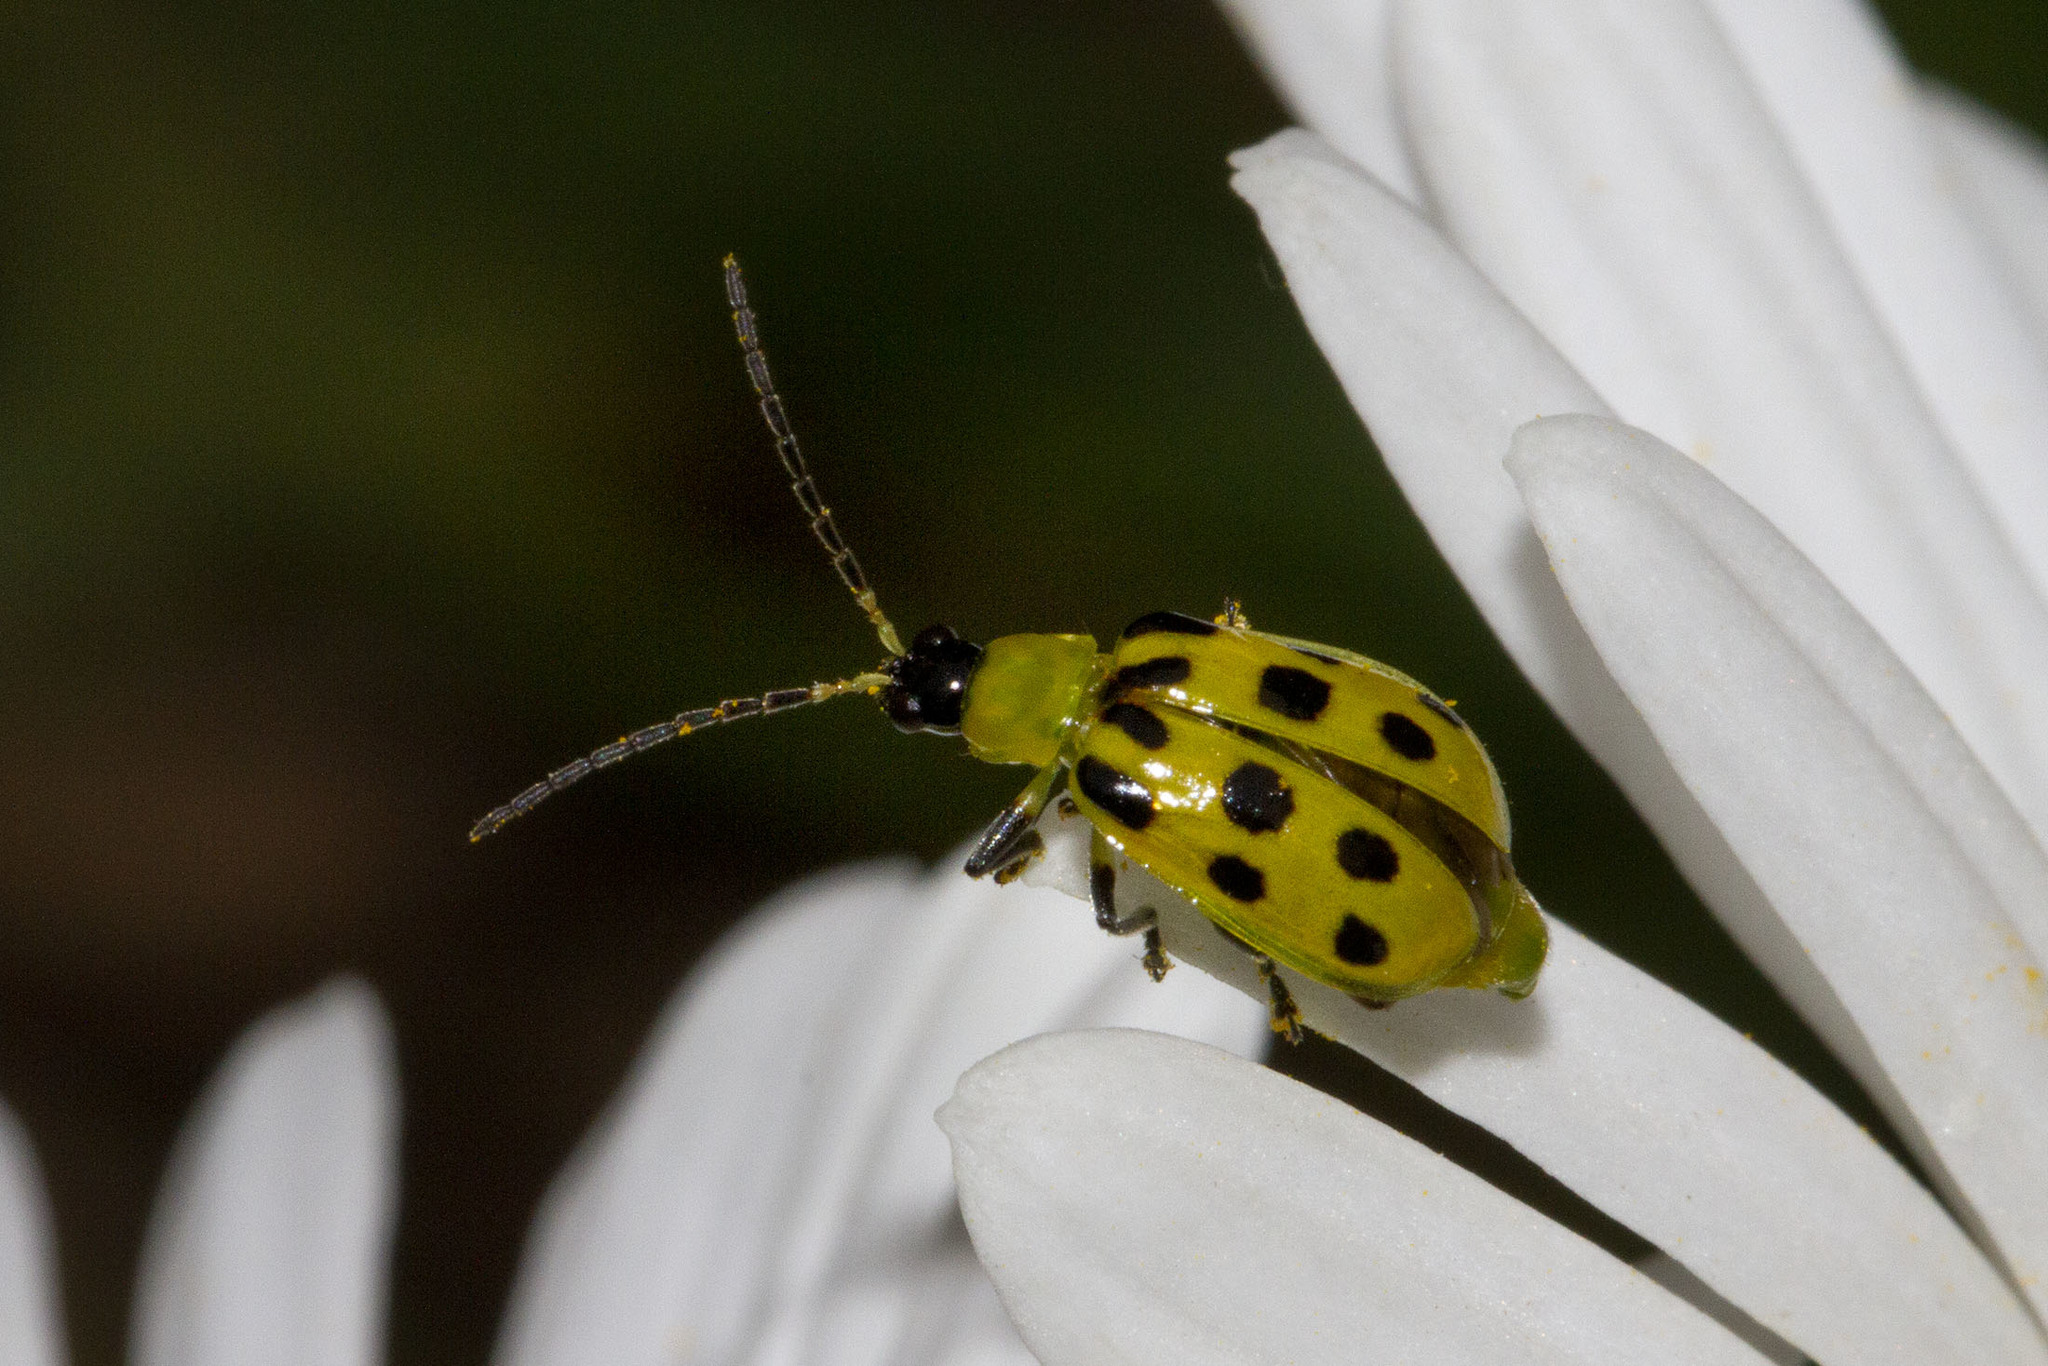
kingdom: Animalia
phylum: Arthropoda
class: Insecta
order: Coleoptera
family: Chrysomelidae
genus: Diabrotica
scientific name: Diabrotica undecimpunctata
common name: Spotted cucumber beetle
